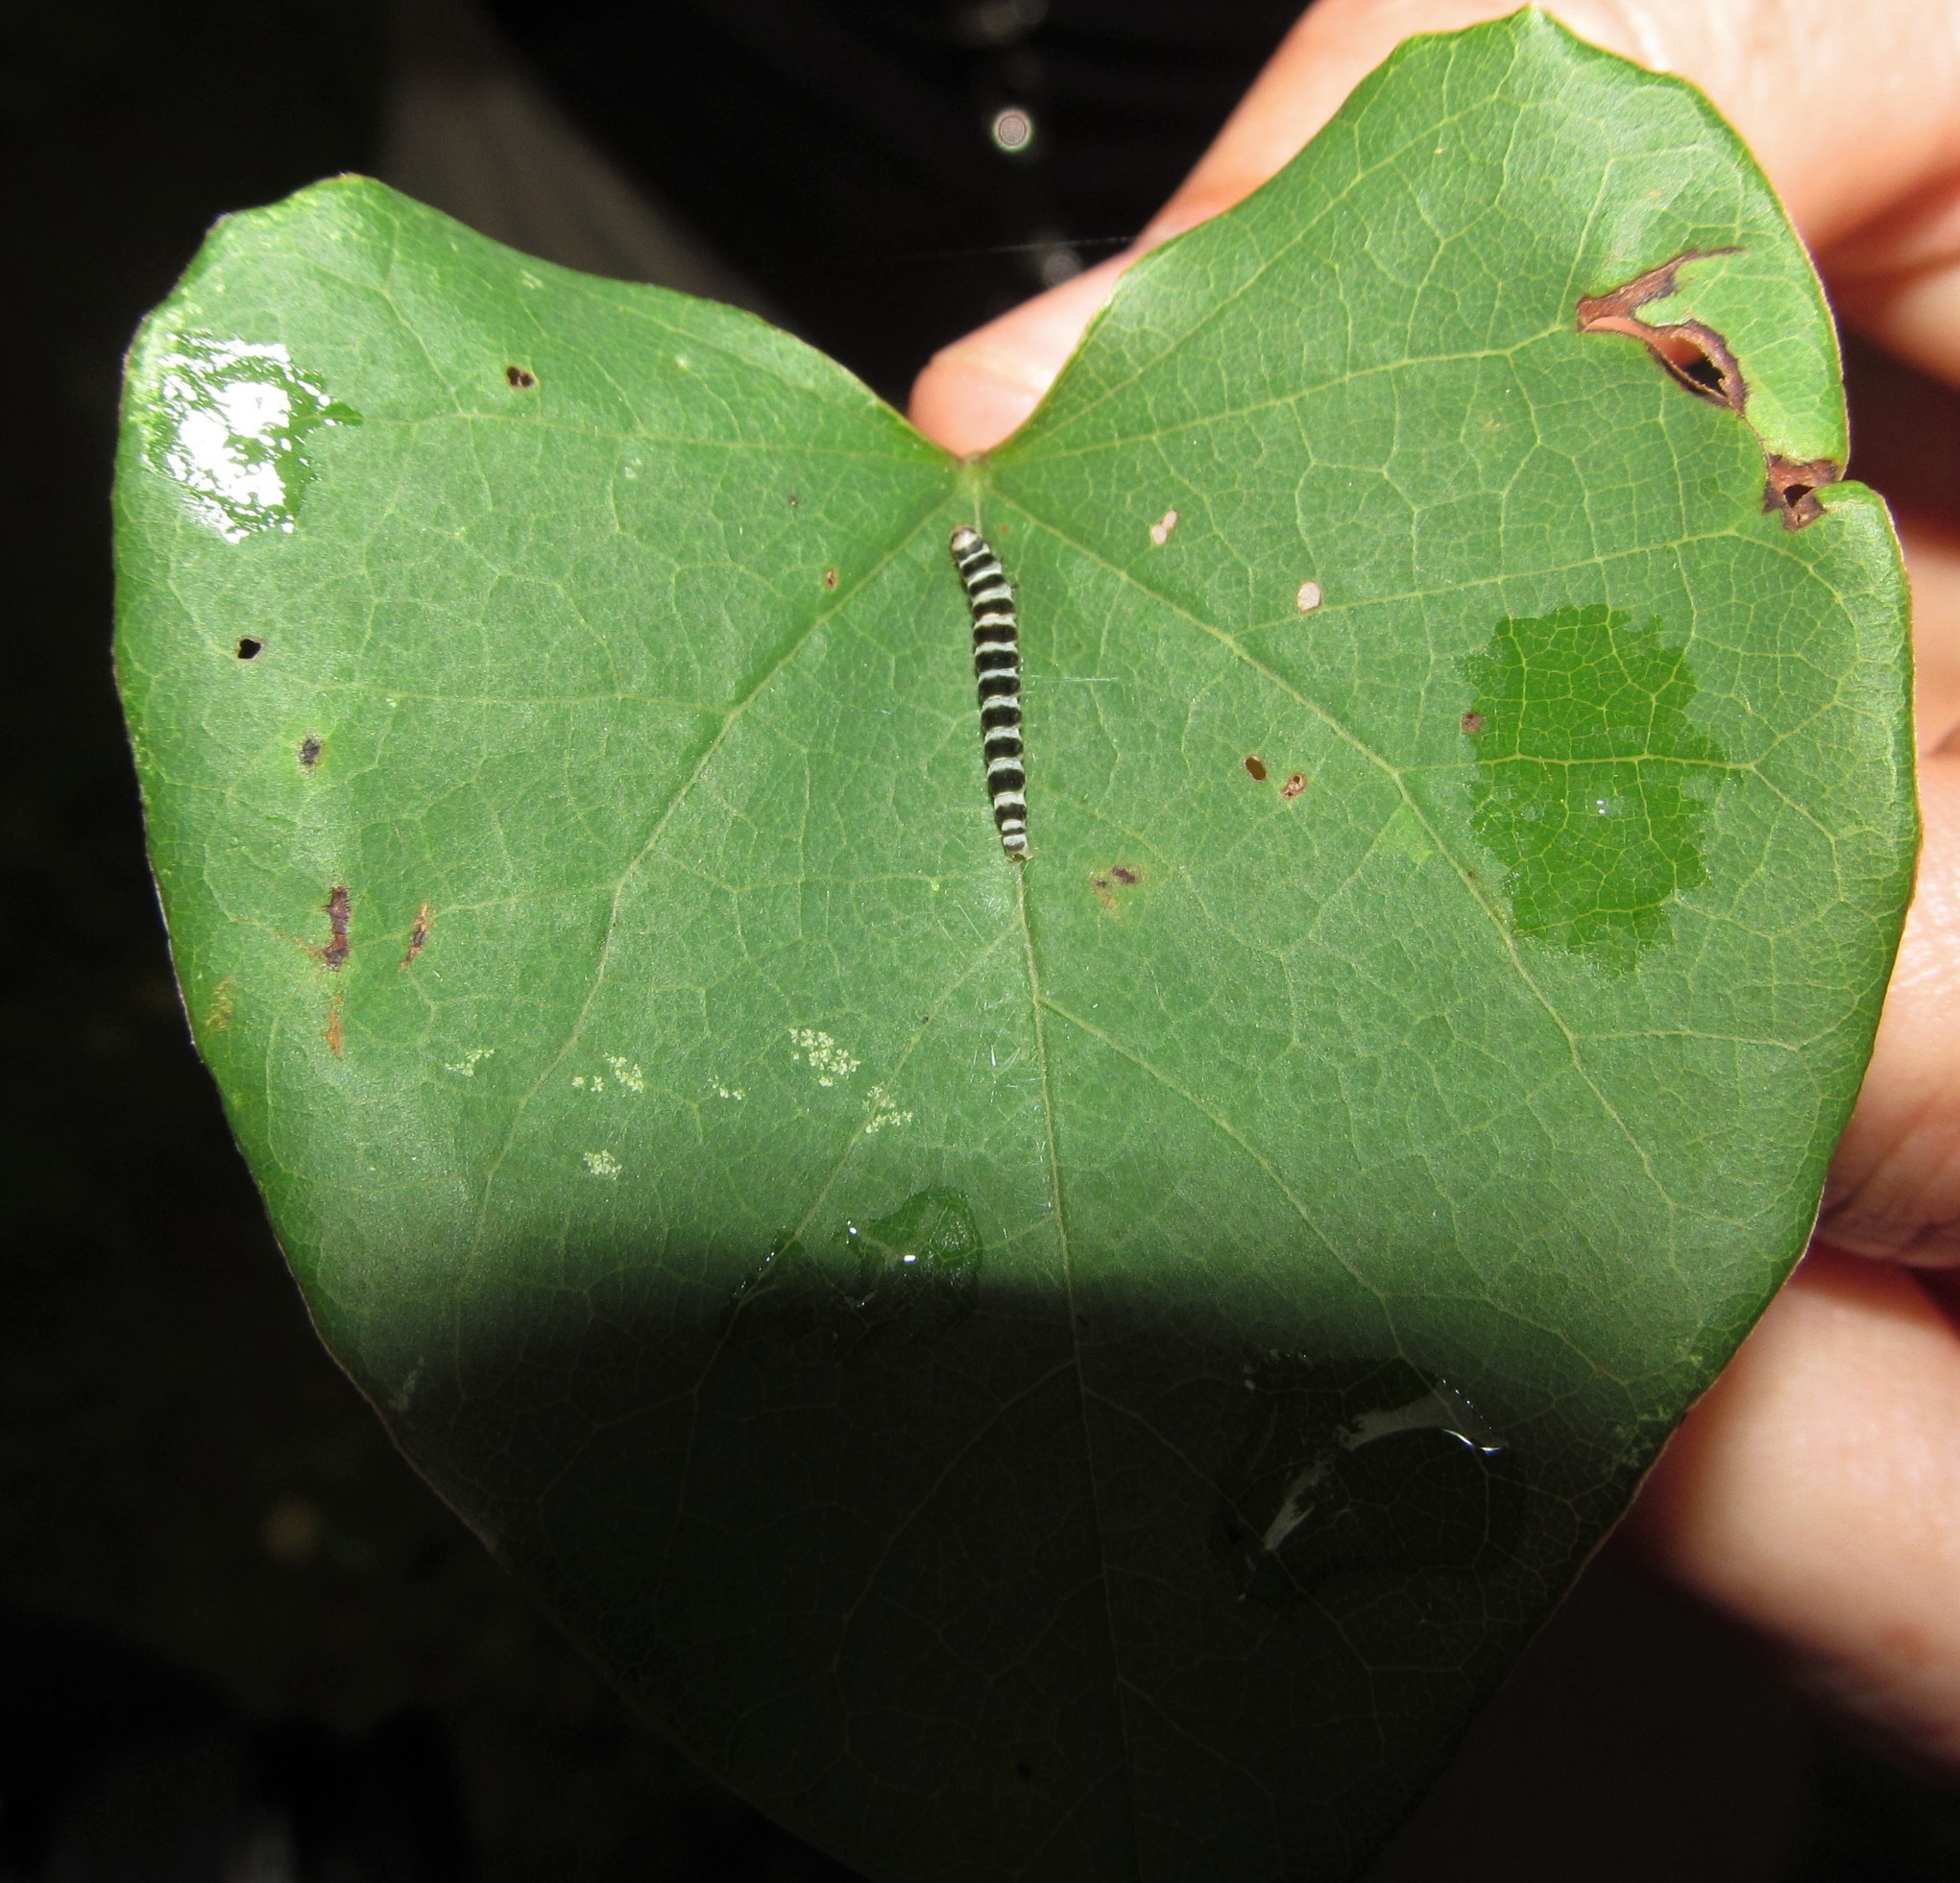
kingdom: Animalia
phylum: Arthropoda
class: Insecta
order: Lepidoptera
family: Gelechiidae
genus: Fascista
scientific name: Fascista cercerisella
